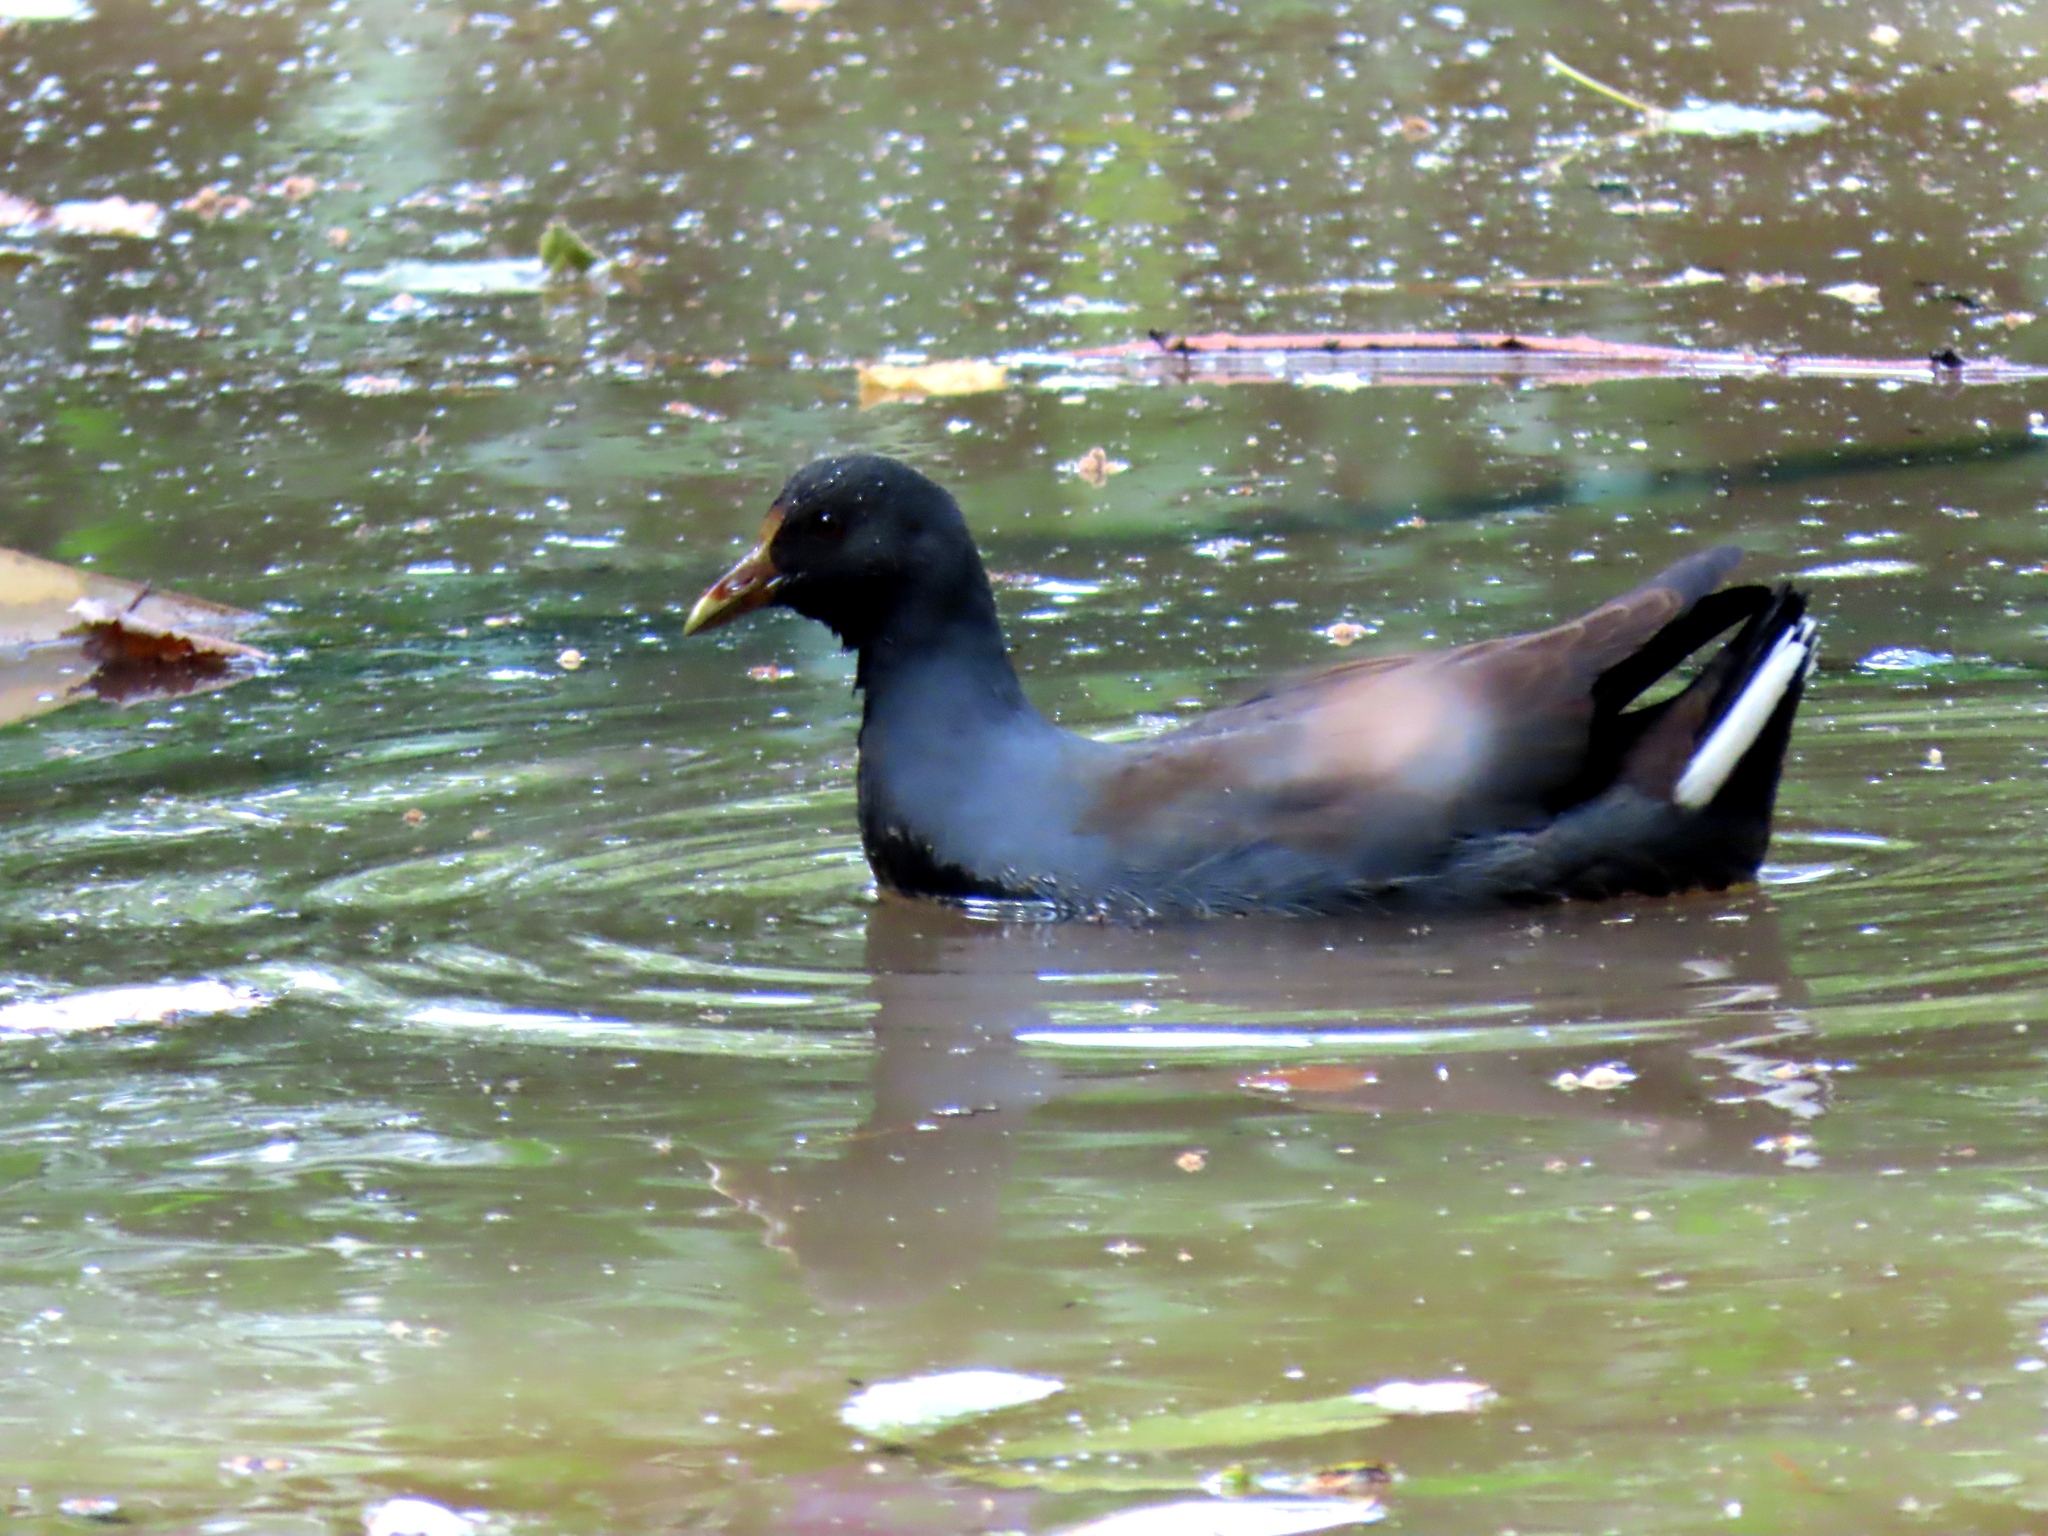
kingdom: Animalia
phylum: Chordata
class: Aves
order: Gruiformes
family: Rallidae
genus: Gallinula
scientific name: Gallinula tenebrosa
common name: Dusky moorhen
